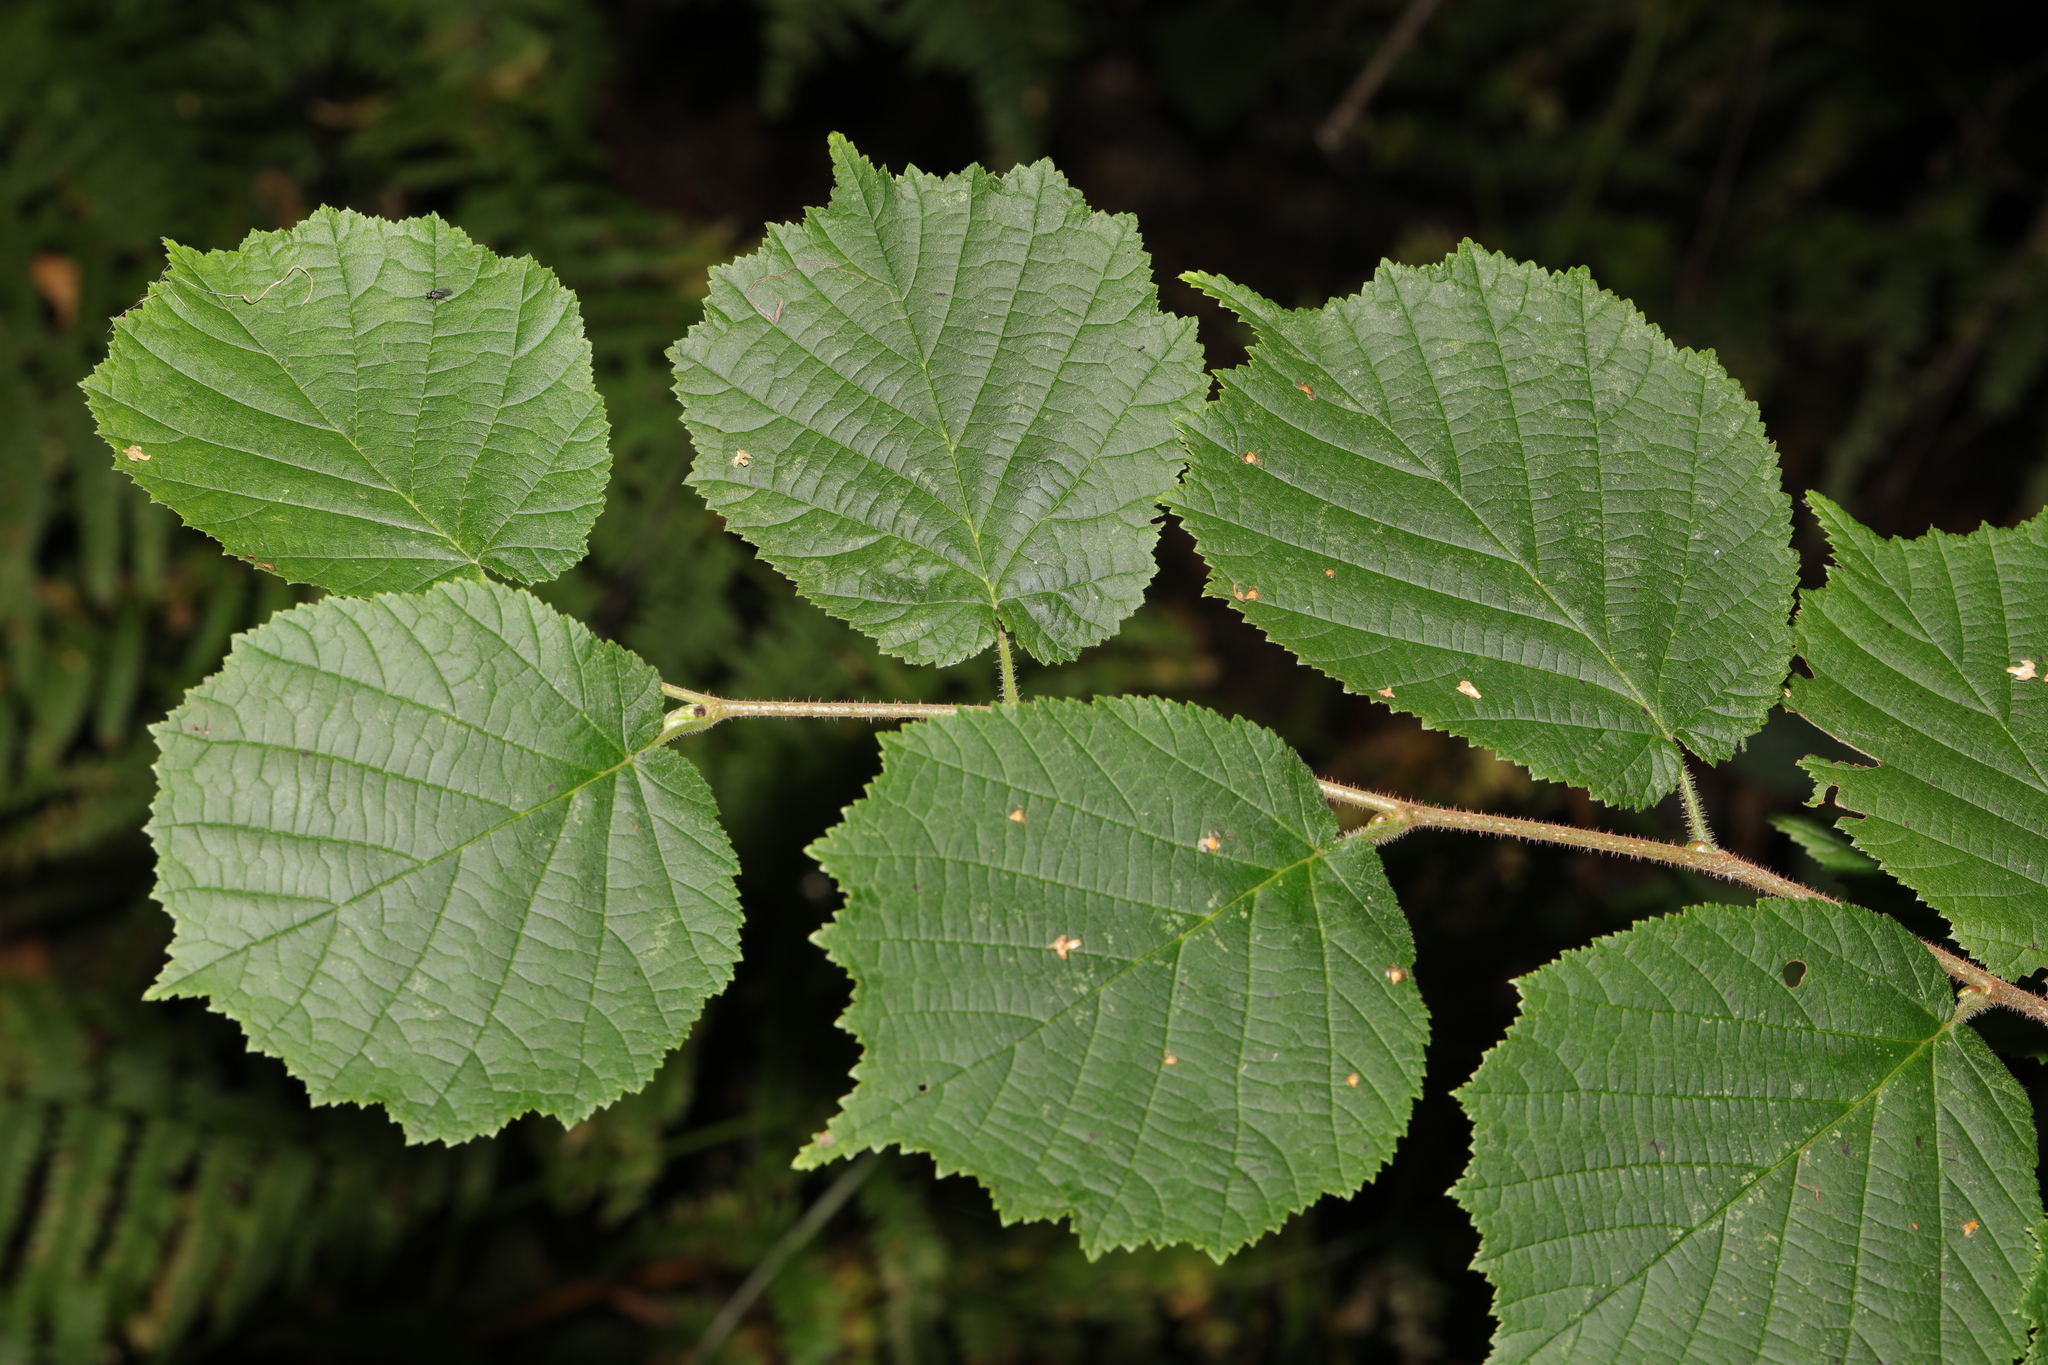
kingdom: Plantae
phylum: Tracheophyta
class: Magnoliopsida
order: Fagales
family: Betulaceae
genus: Corylus
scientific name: Corylus avellana
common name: European hazel
